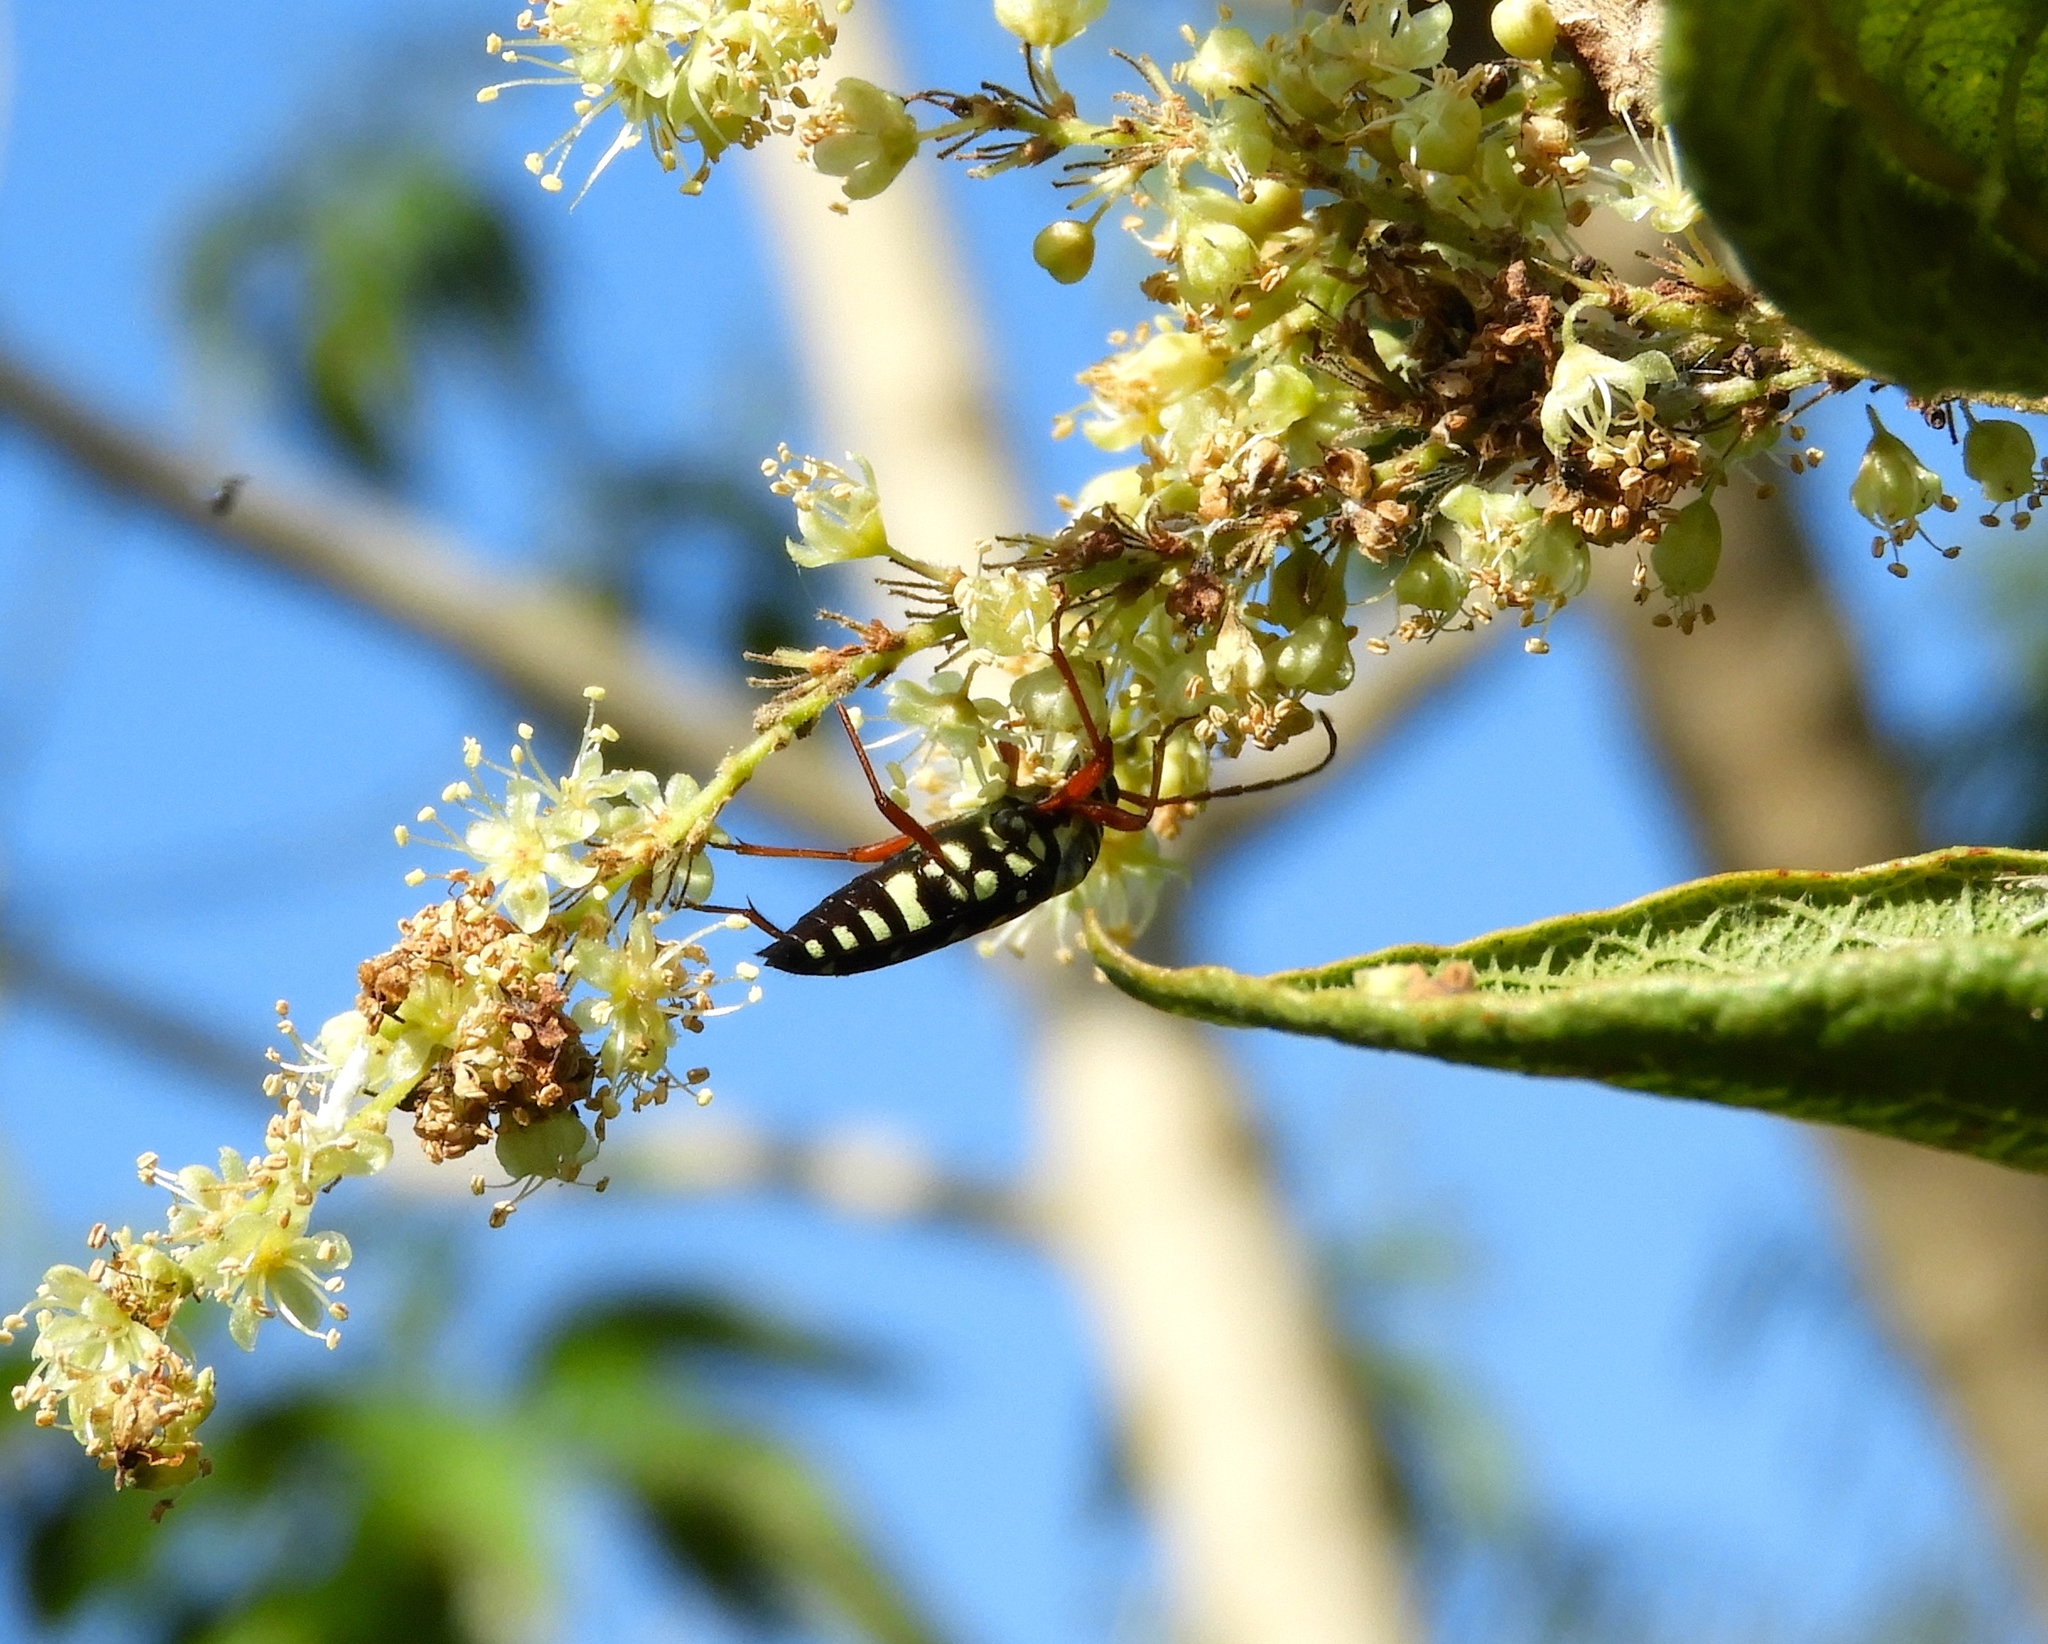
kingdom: Animalia
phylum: Arthropoda
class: Insecta
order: Hemiptera
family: Reduviidae
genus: Zelus
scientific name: Zelus grassans
